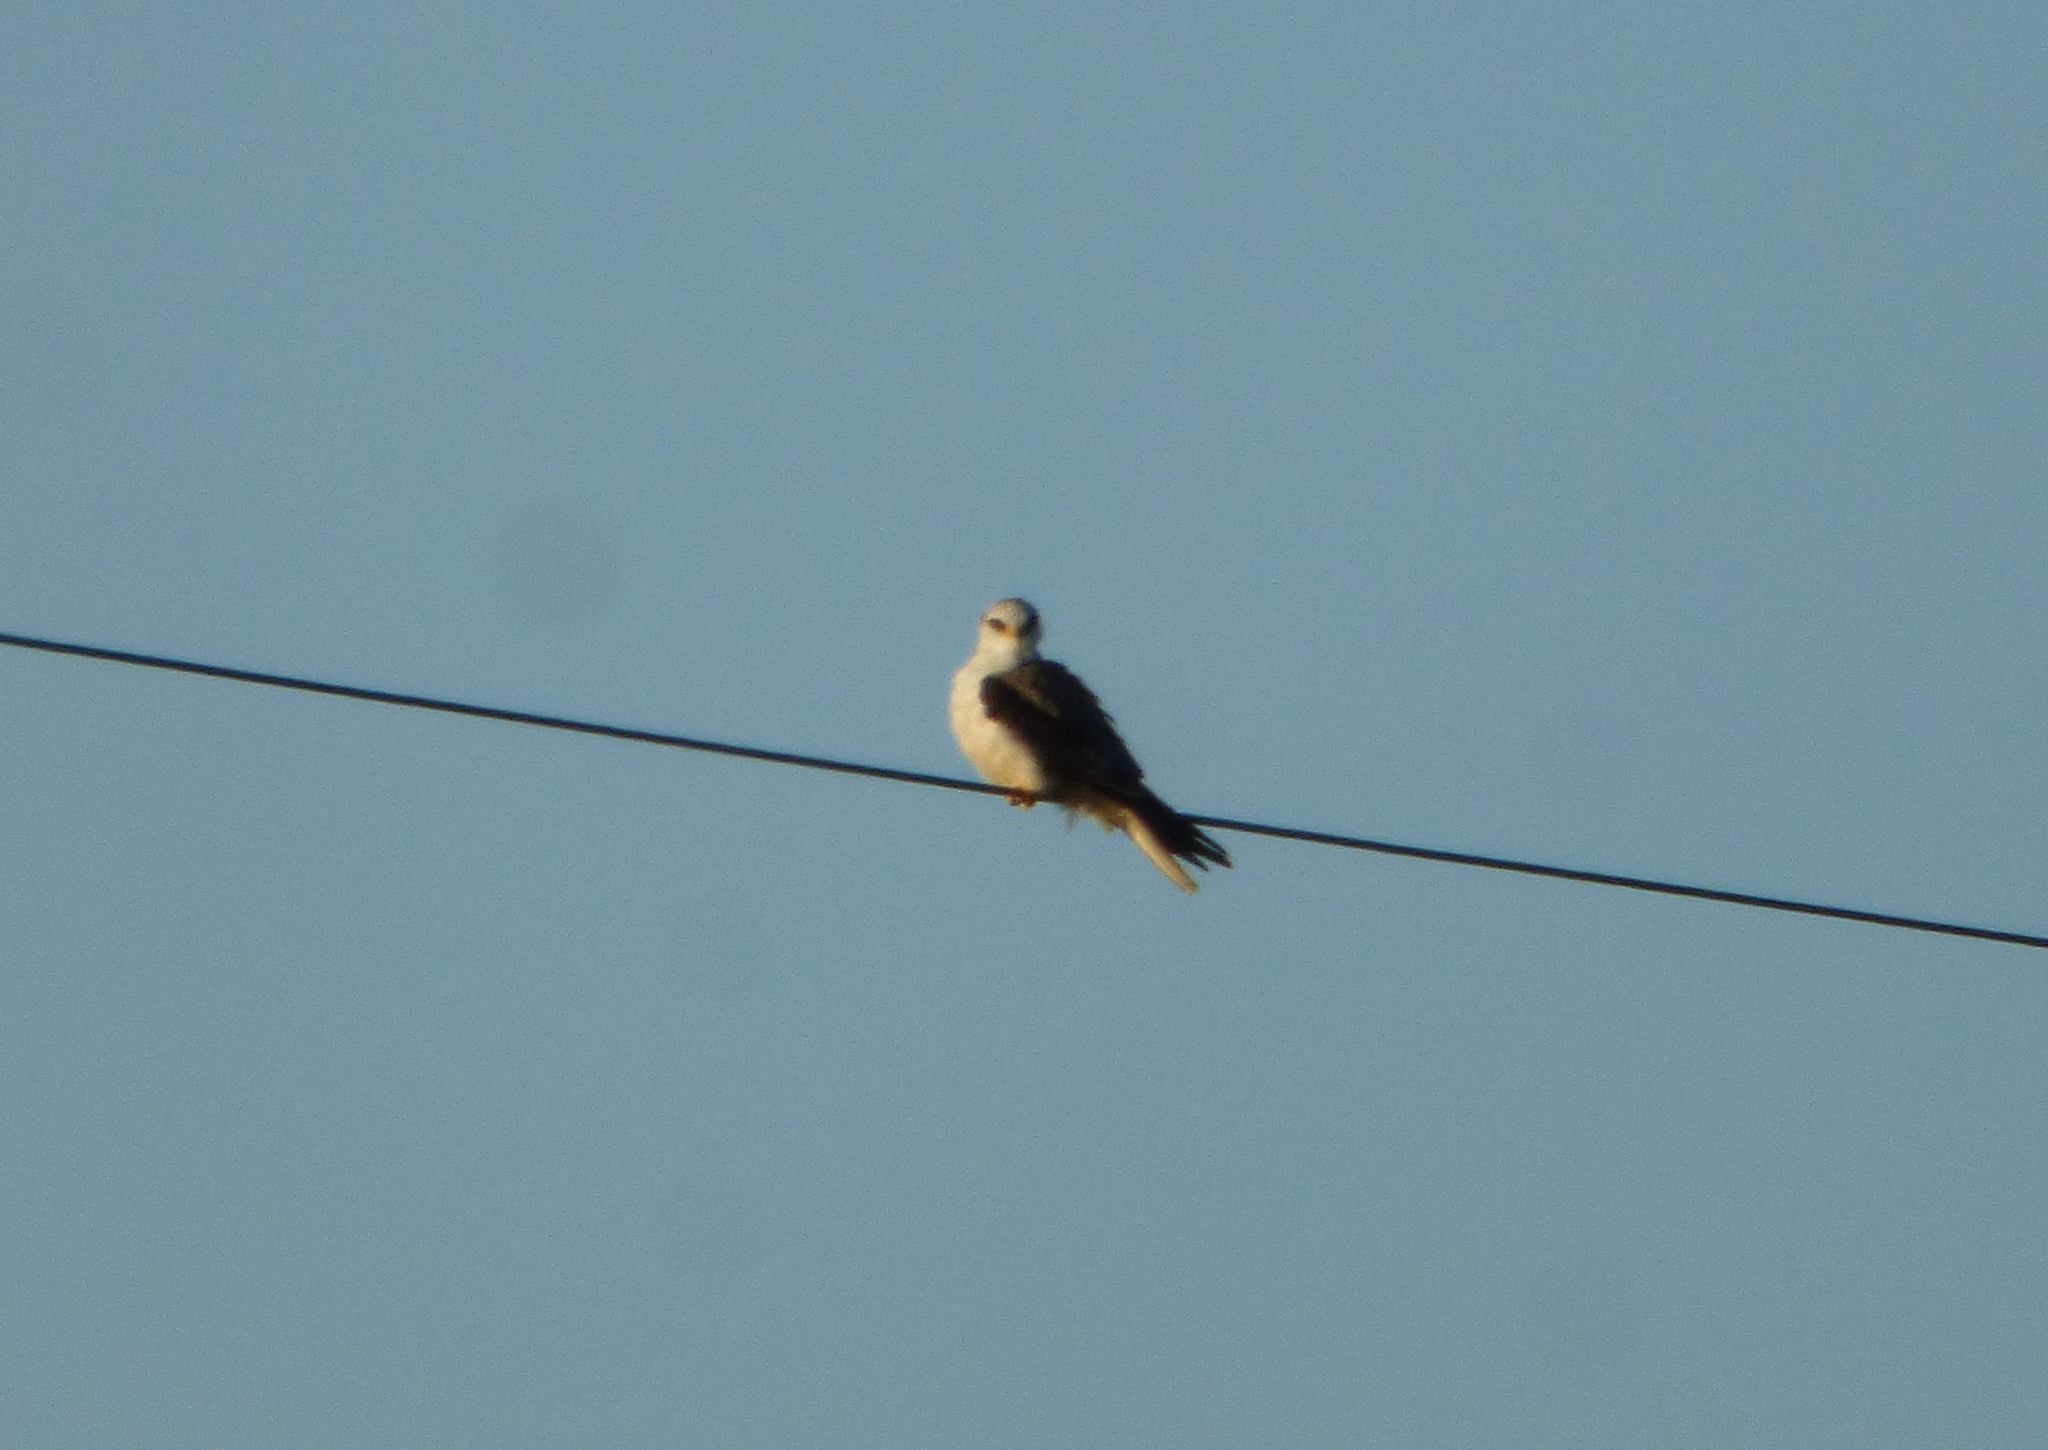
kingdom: Animalia
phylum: Chordata
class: Aves
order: Accipitriformes
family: Accipitridae
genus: Elanus
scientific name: Elanus leucurus
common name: White-tailed kite
